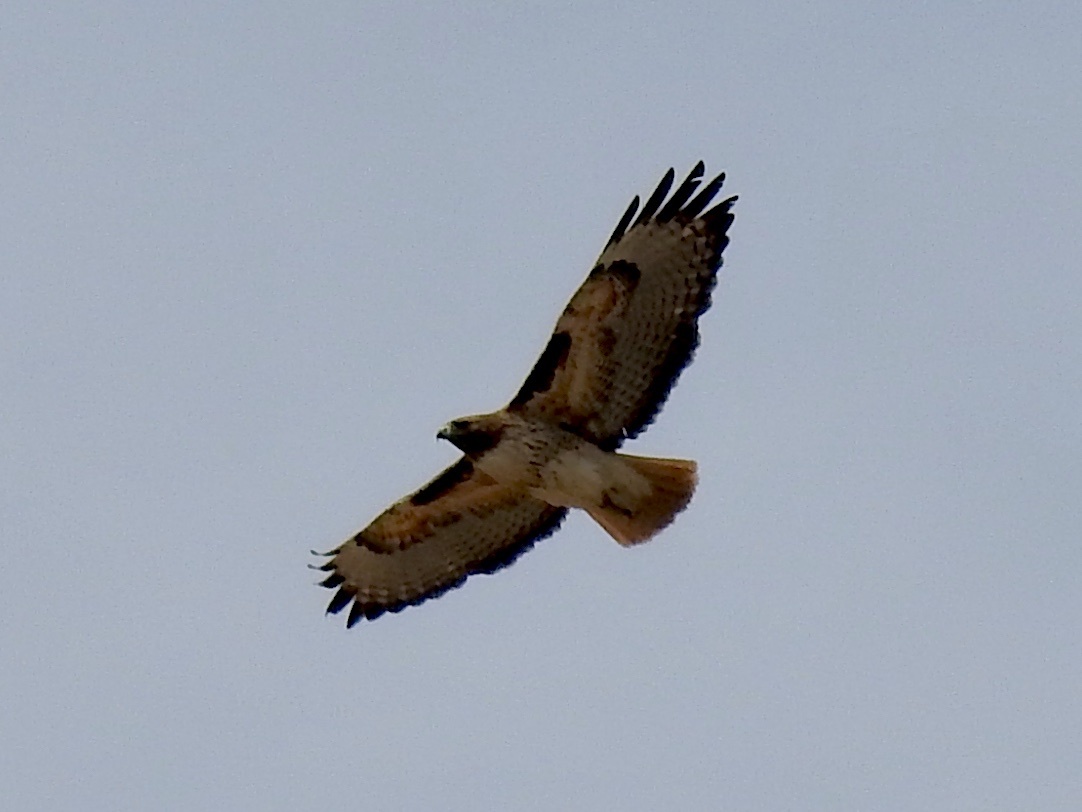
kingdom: Animalia
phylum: Chordata
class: Aves
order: Accipitriformes
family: Accipitridae
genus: Buteo
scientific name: Buteo jamaicensis
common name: Red-tailed hawk
